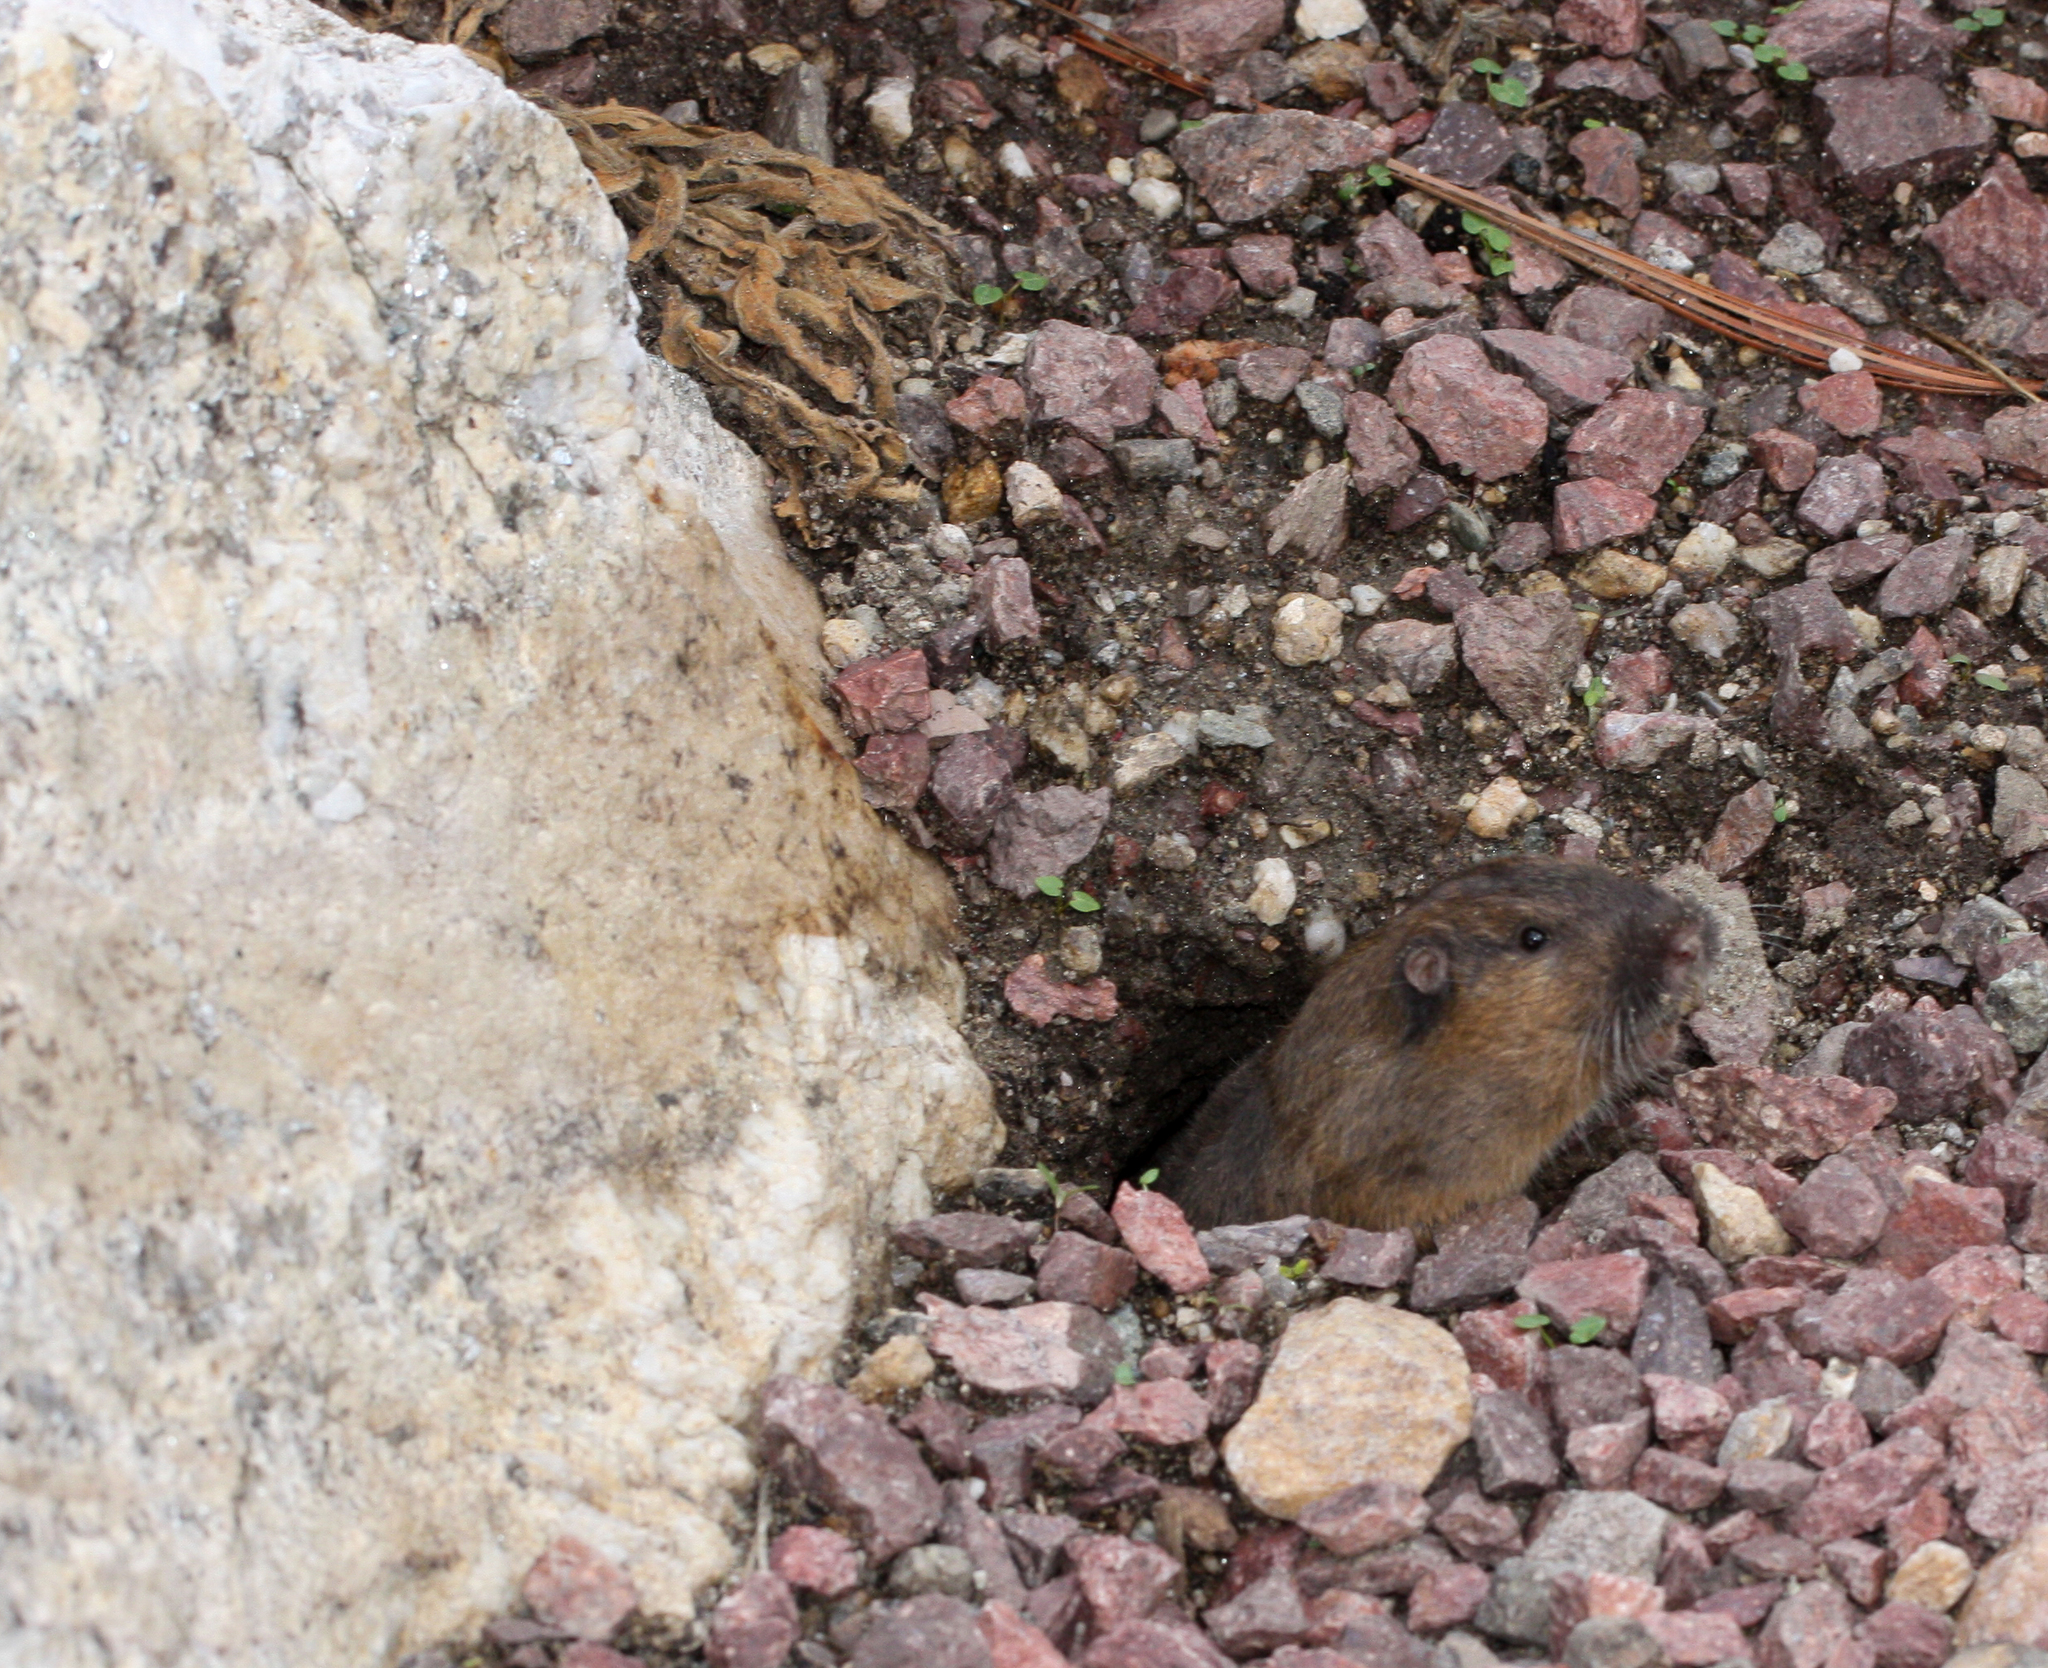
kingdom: Animalia
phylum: Chordata
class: Mammalia
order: Rodentia
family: Geomyidae
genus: Thomomys
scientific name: Thomomys bottae
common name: Botta's pocket gopher
